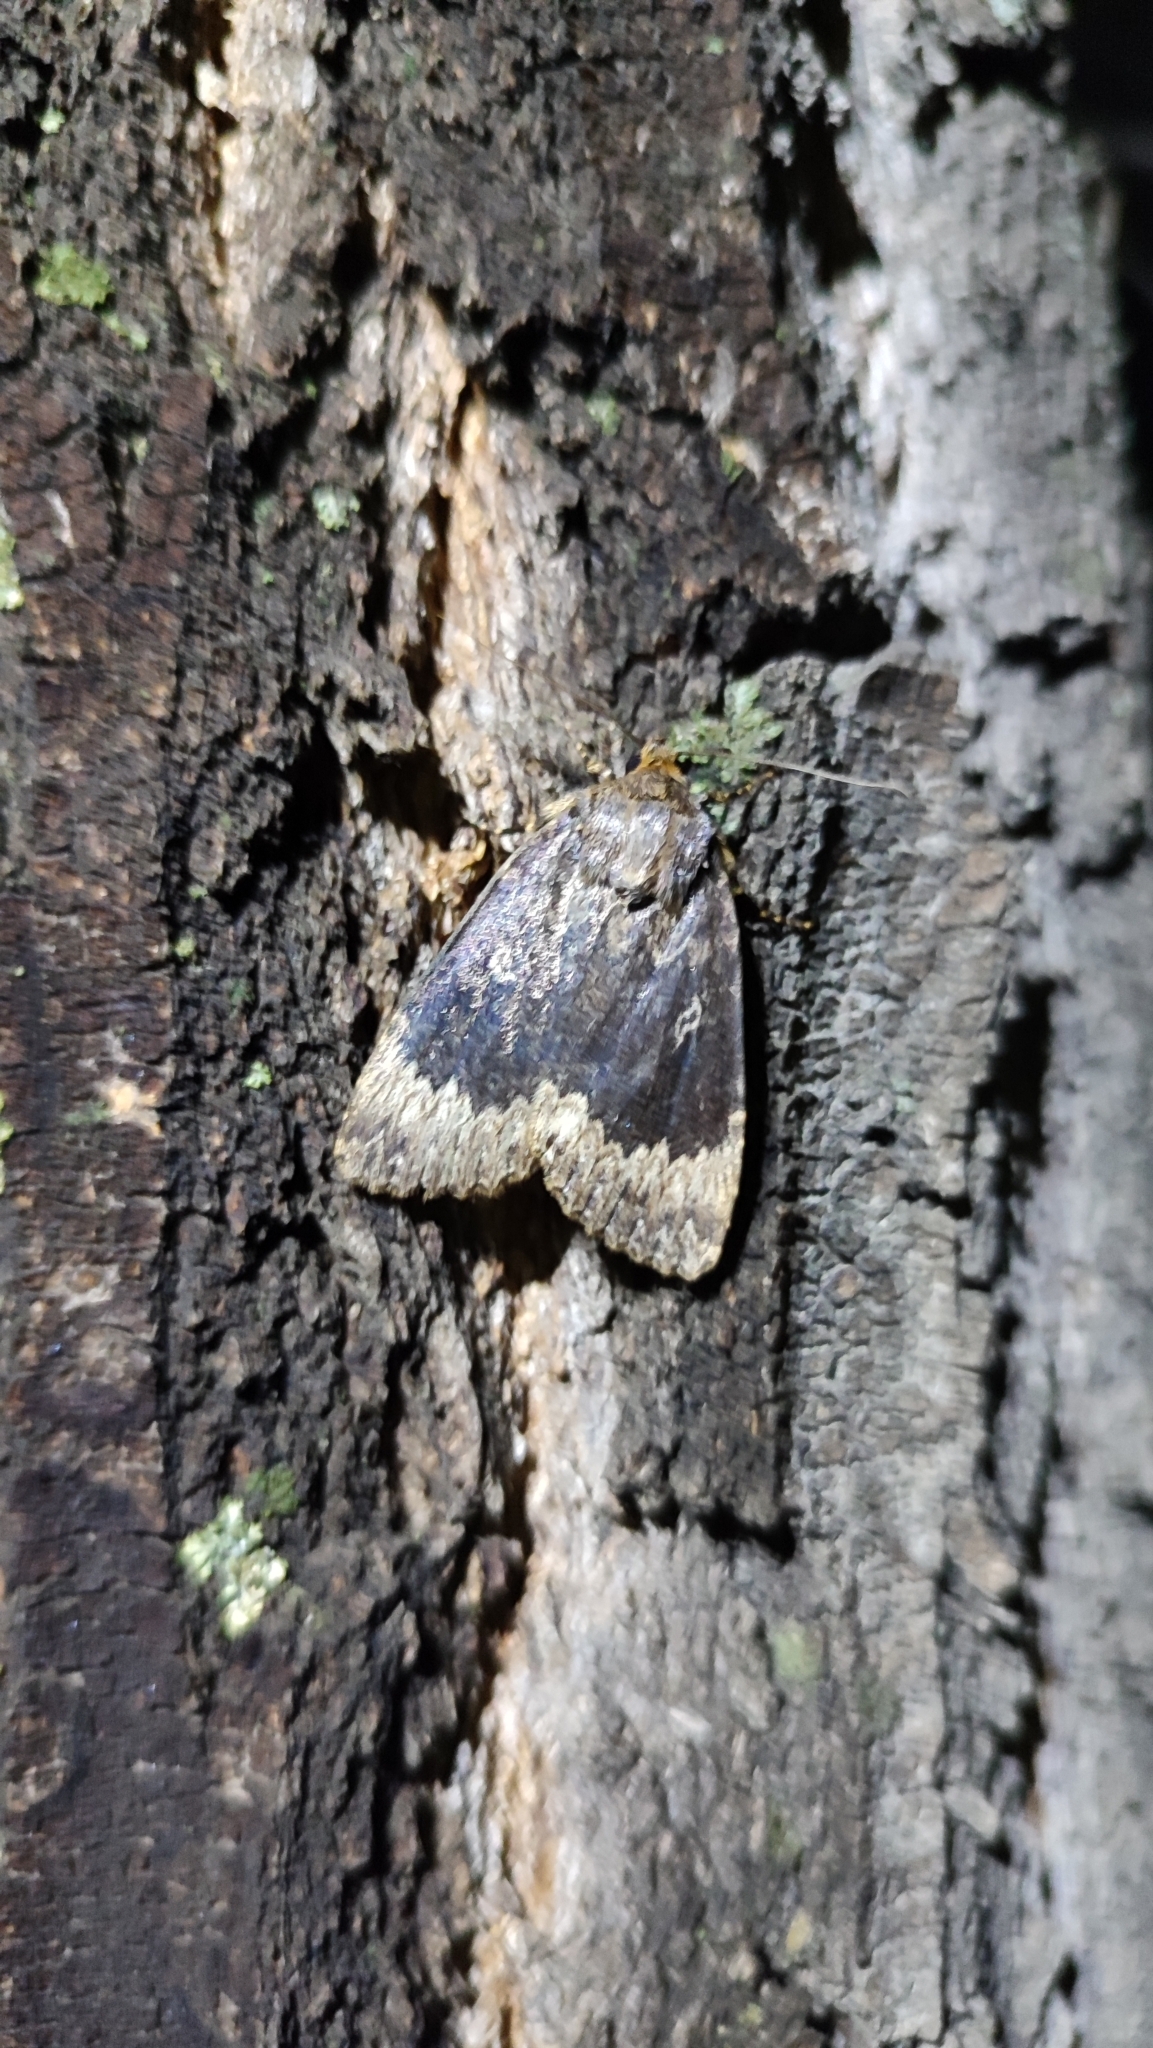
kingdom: Animalia
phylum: Arthropoda
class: Insecta
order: Lepidoptera
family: Noctuidae
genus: Amphipyra
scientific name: Amphipyra perflua
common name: Larger pale-tipped black moth
